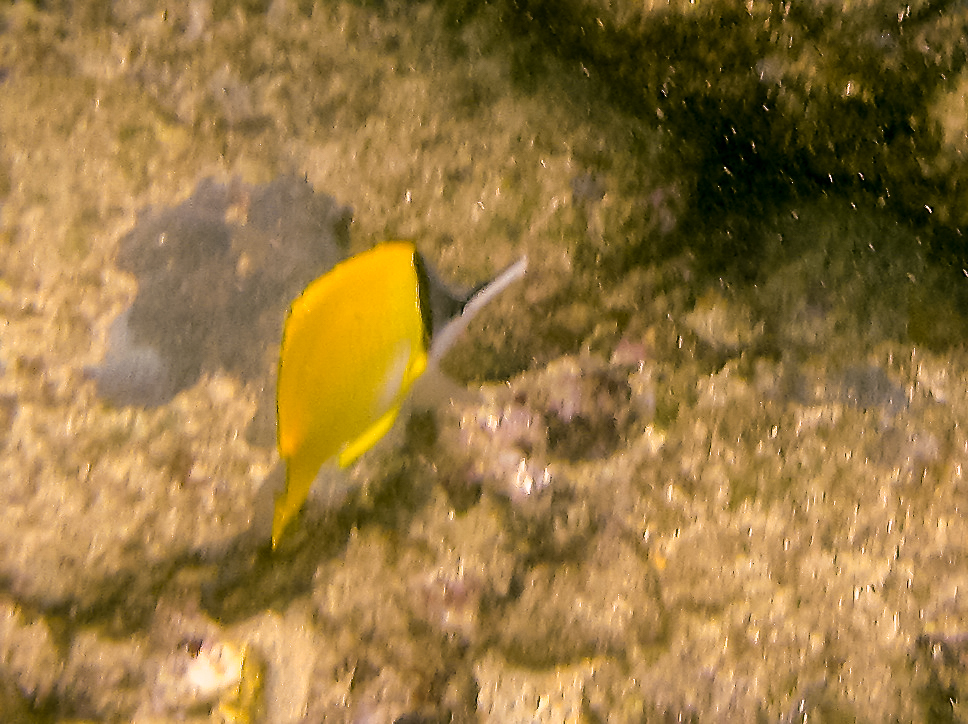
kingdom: Animalia
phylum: Chordata
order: Perciformes
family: Chaetodontidae
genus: Forcipiger
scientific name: Forcipiger flavissimus
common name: Forcepsfish
